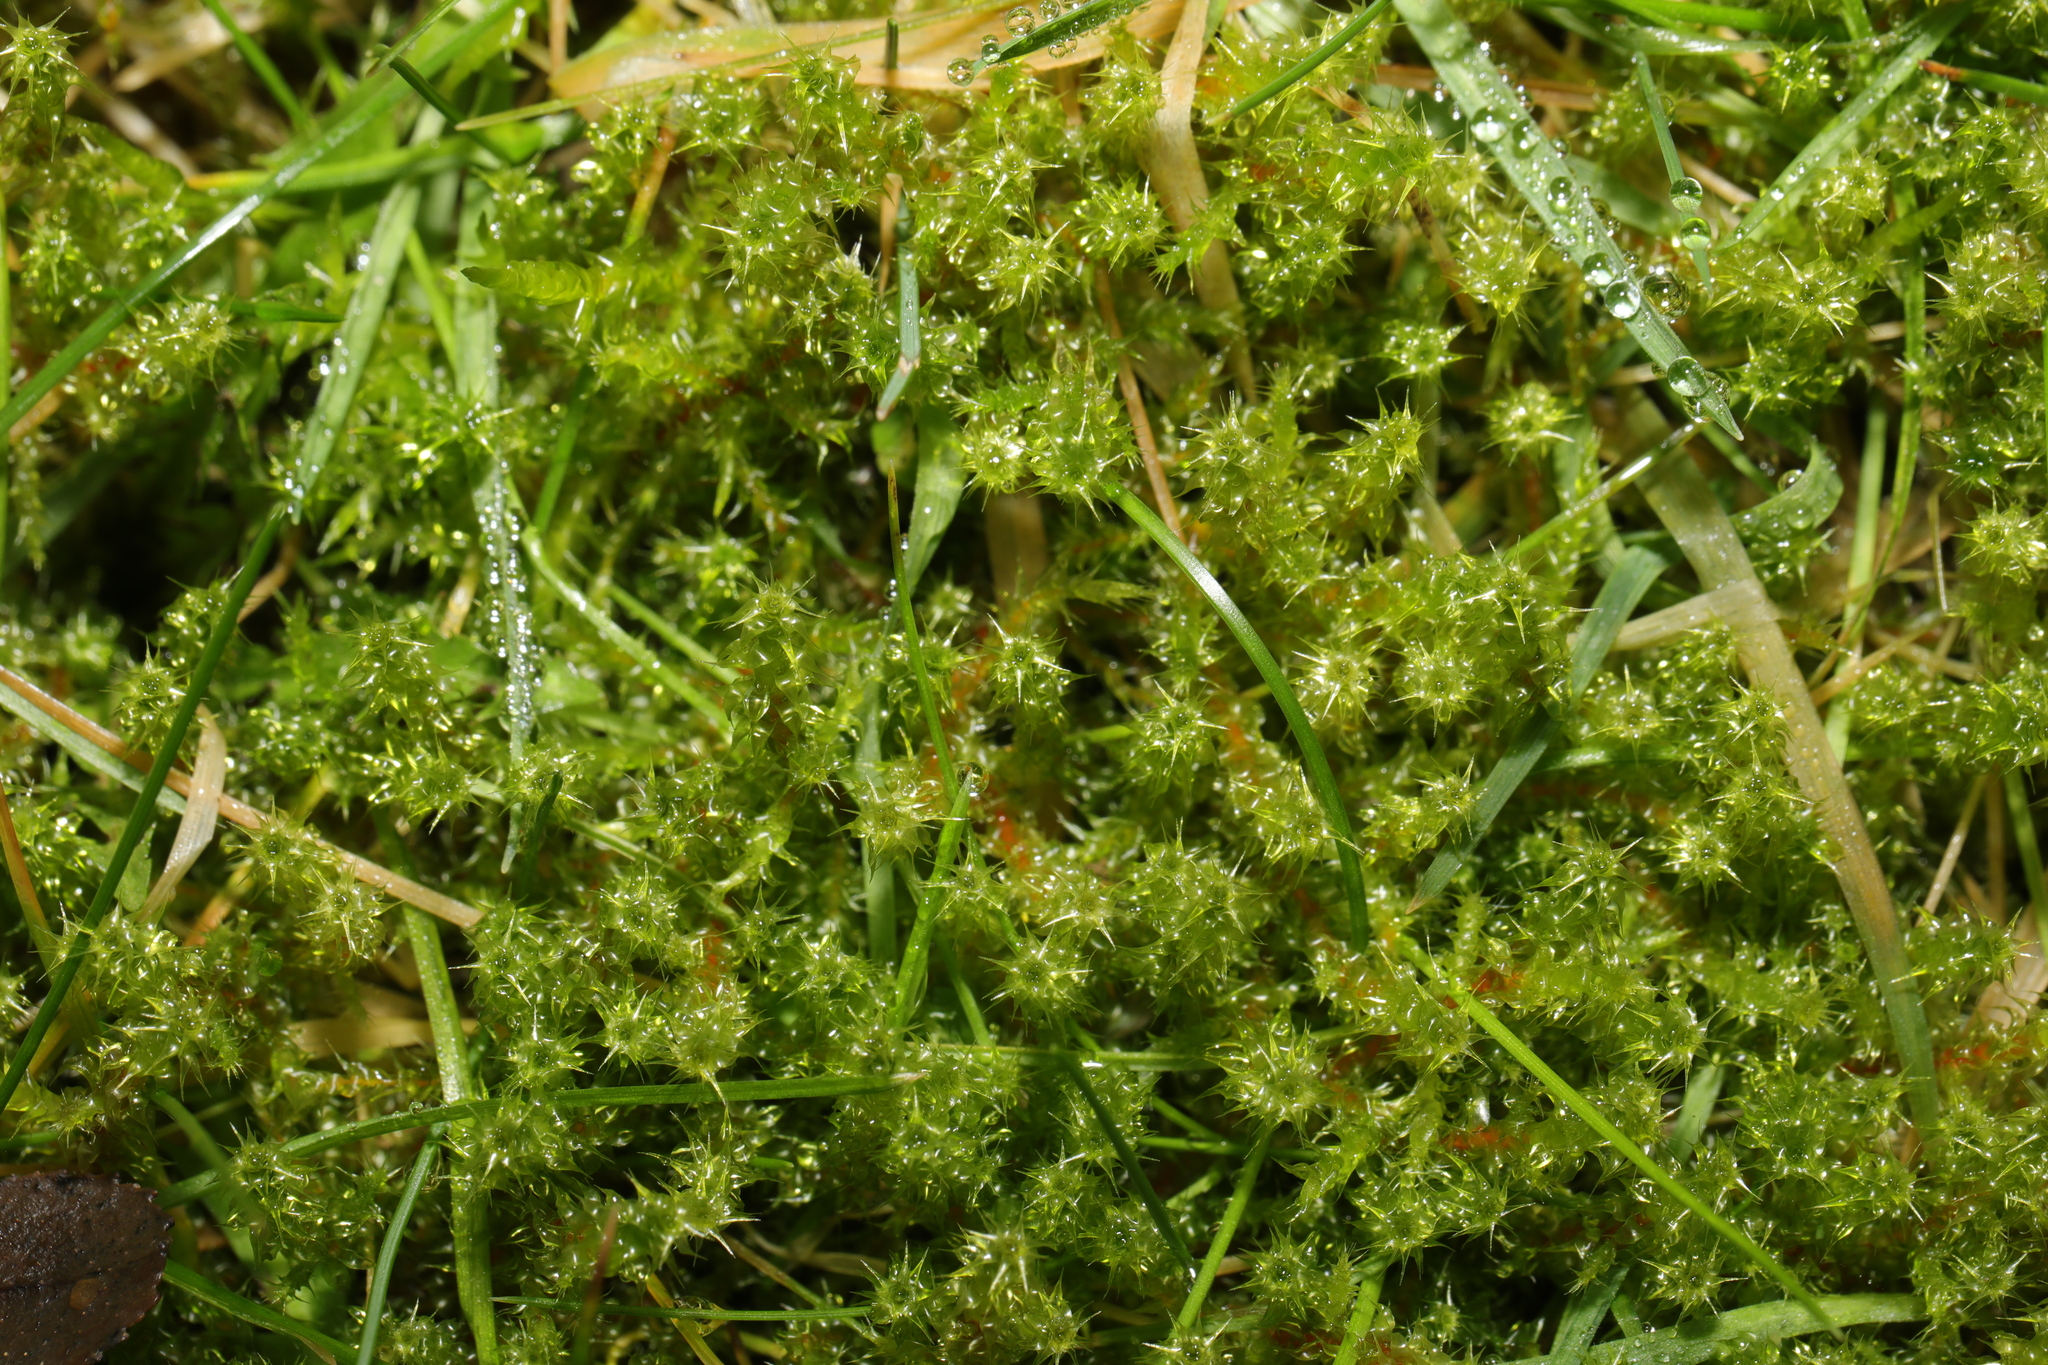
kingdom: Plantae
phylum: Bryophyta
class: Bryopsida
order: Hypnales
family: Hylocomiaceae
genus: Rhytidiadelphus
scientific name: Rhytidiadelphus squarrosus
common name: Springy turf-moss
